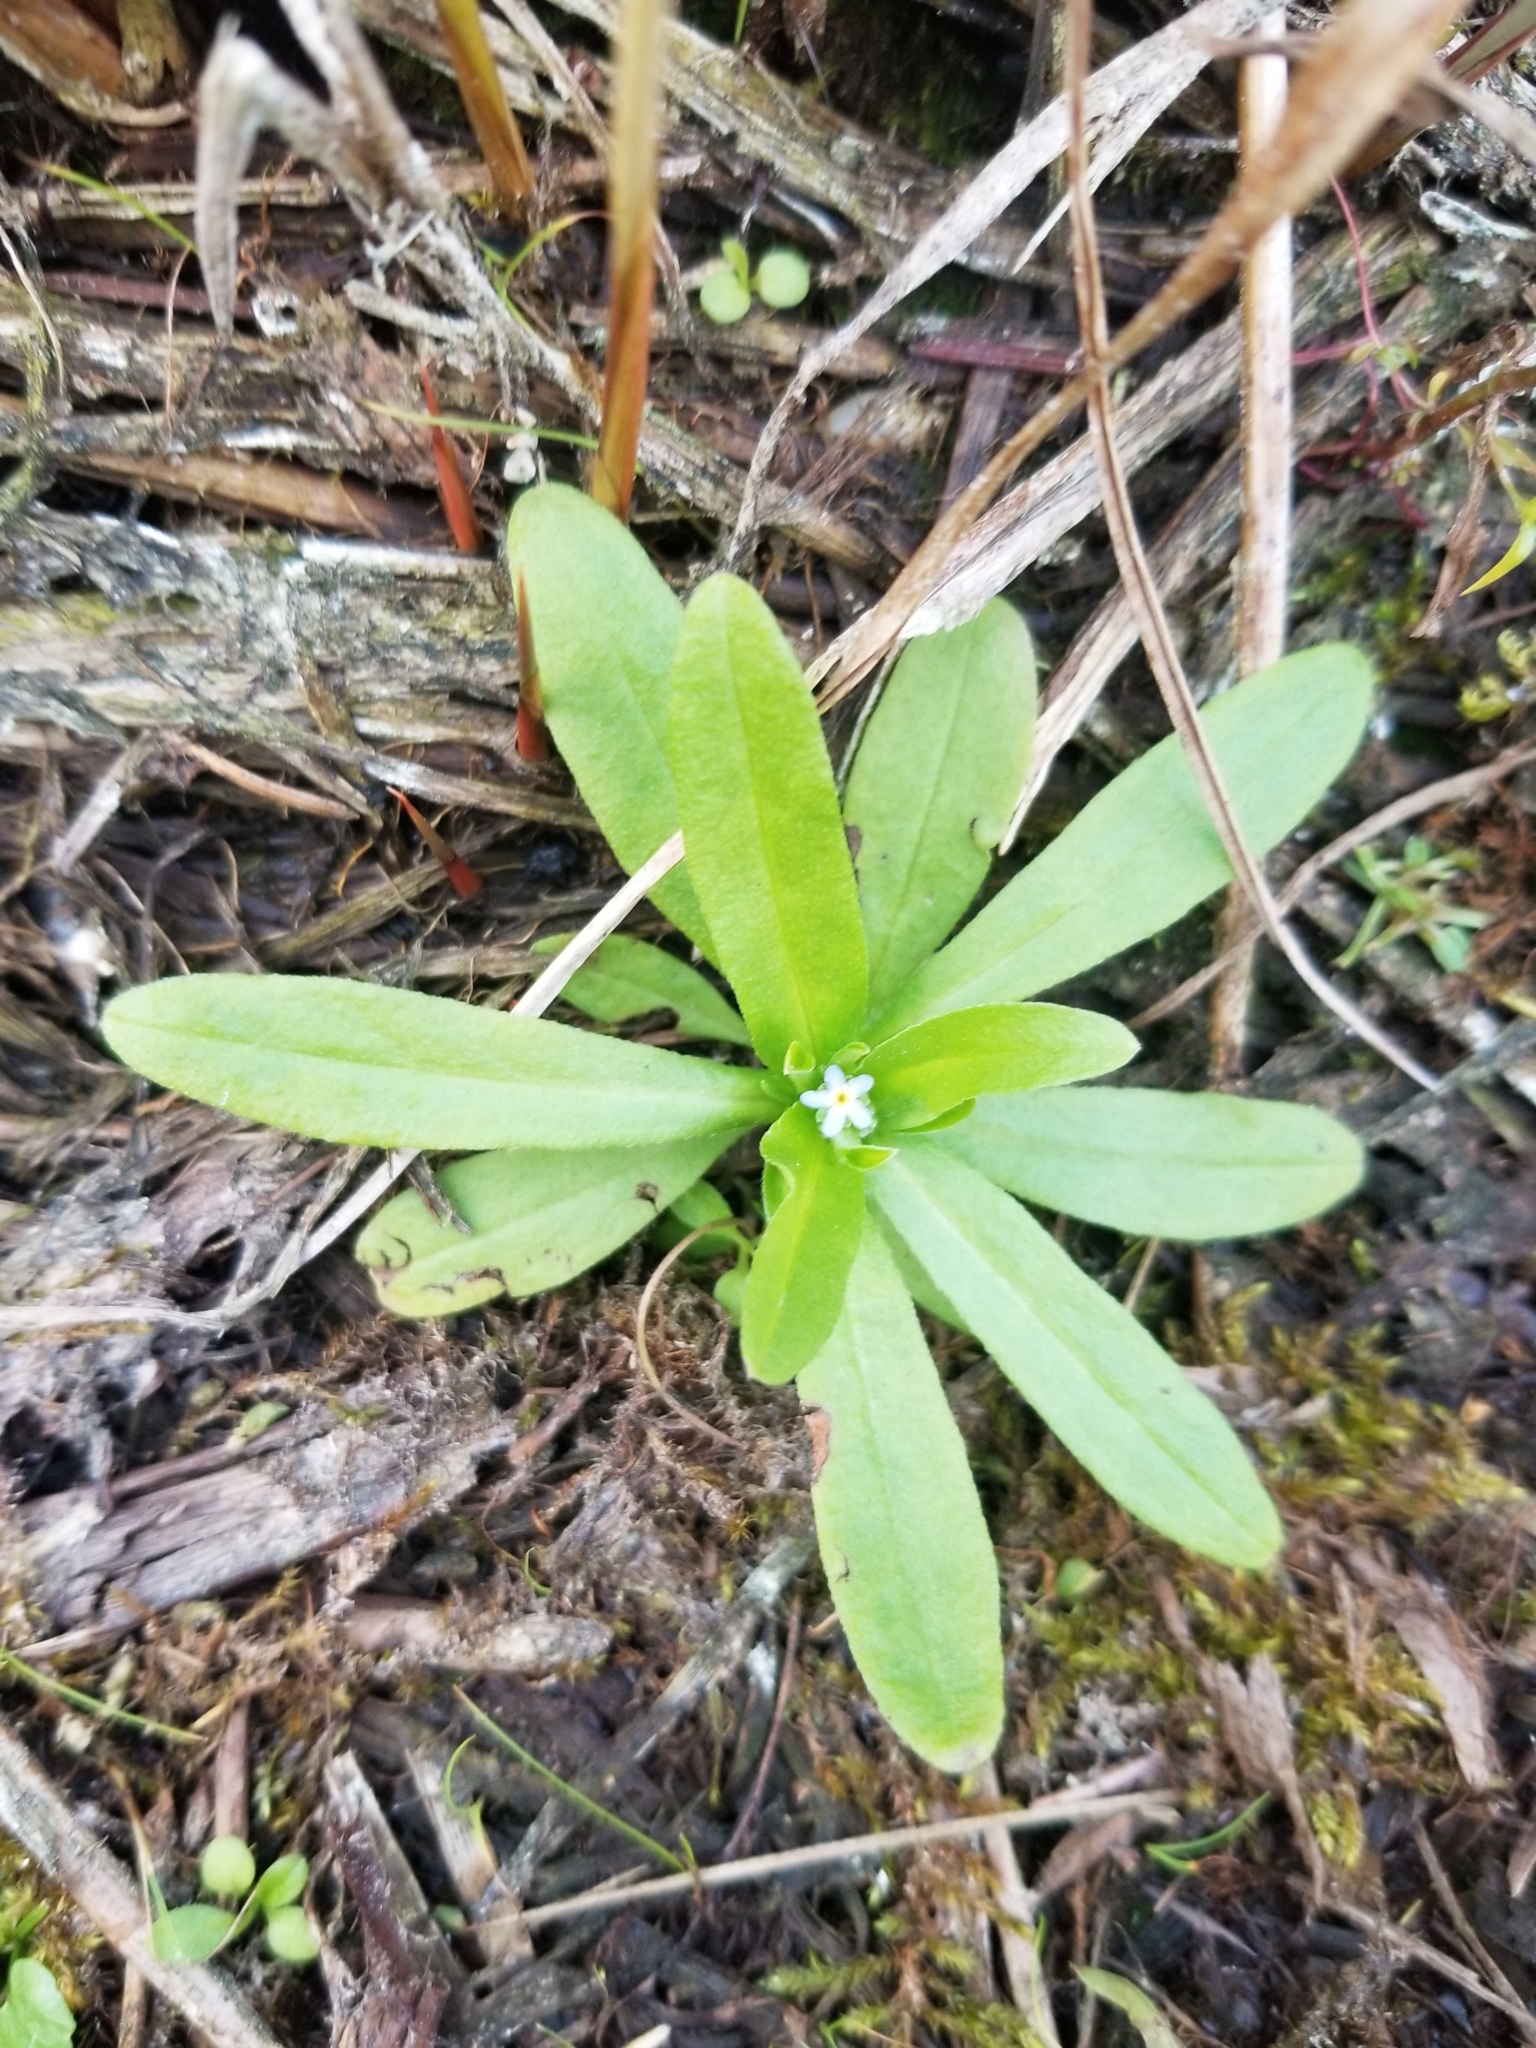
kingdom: Plantae
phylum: Tracheophyta
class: Magnoliopsida
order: Boraginales
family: Boraginaceae
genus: Myosotis
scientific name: Myosotis scorpioides
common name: Water forget-me-not
